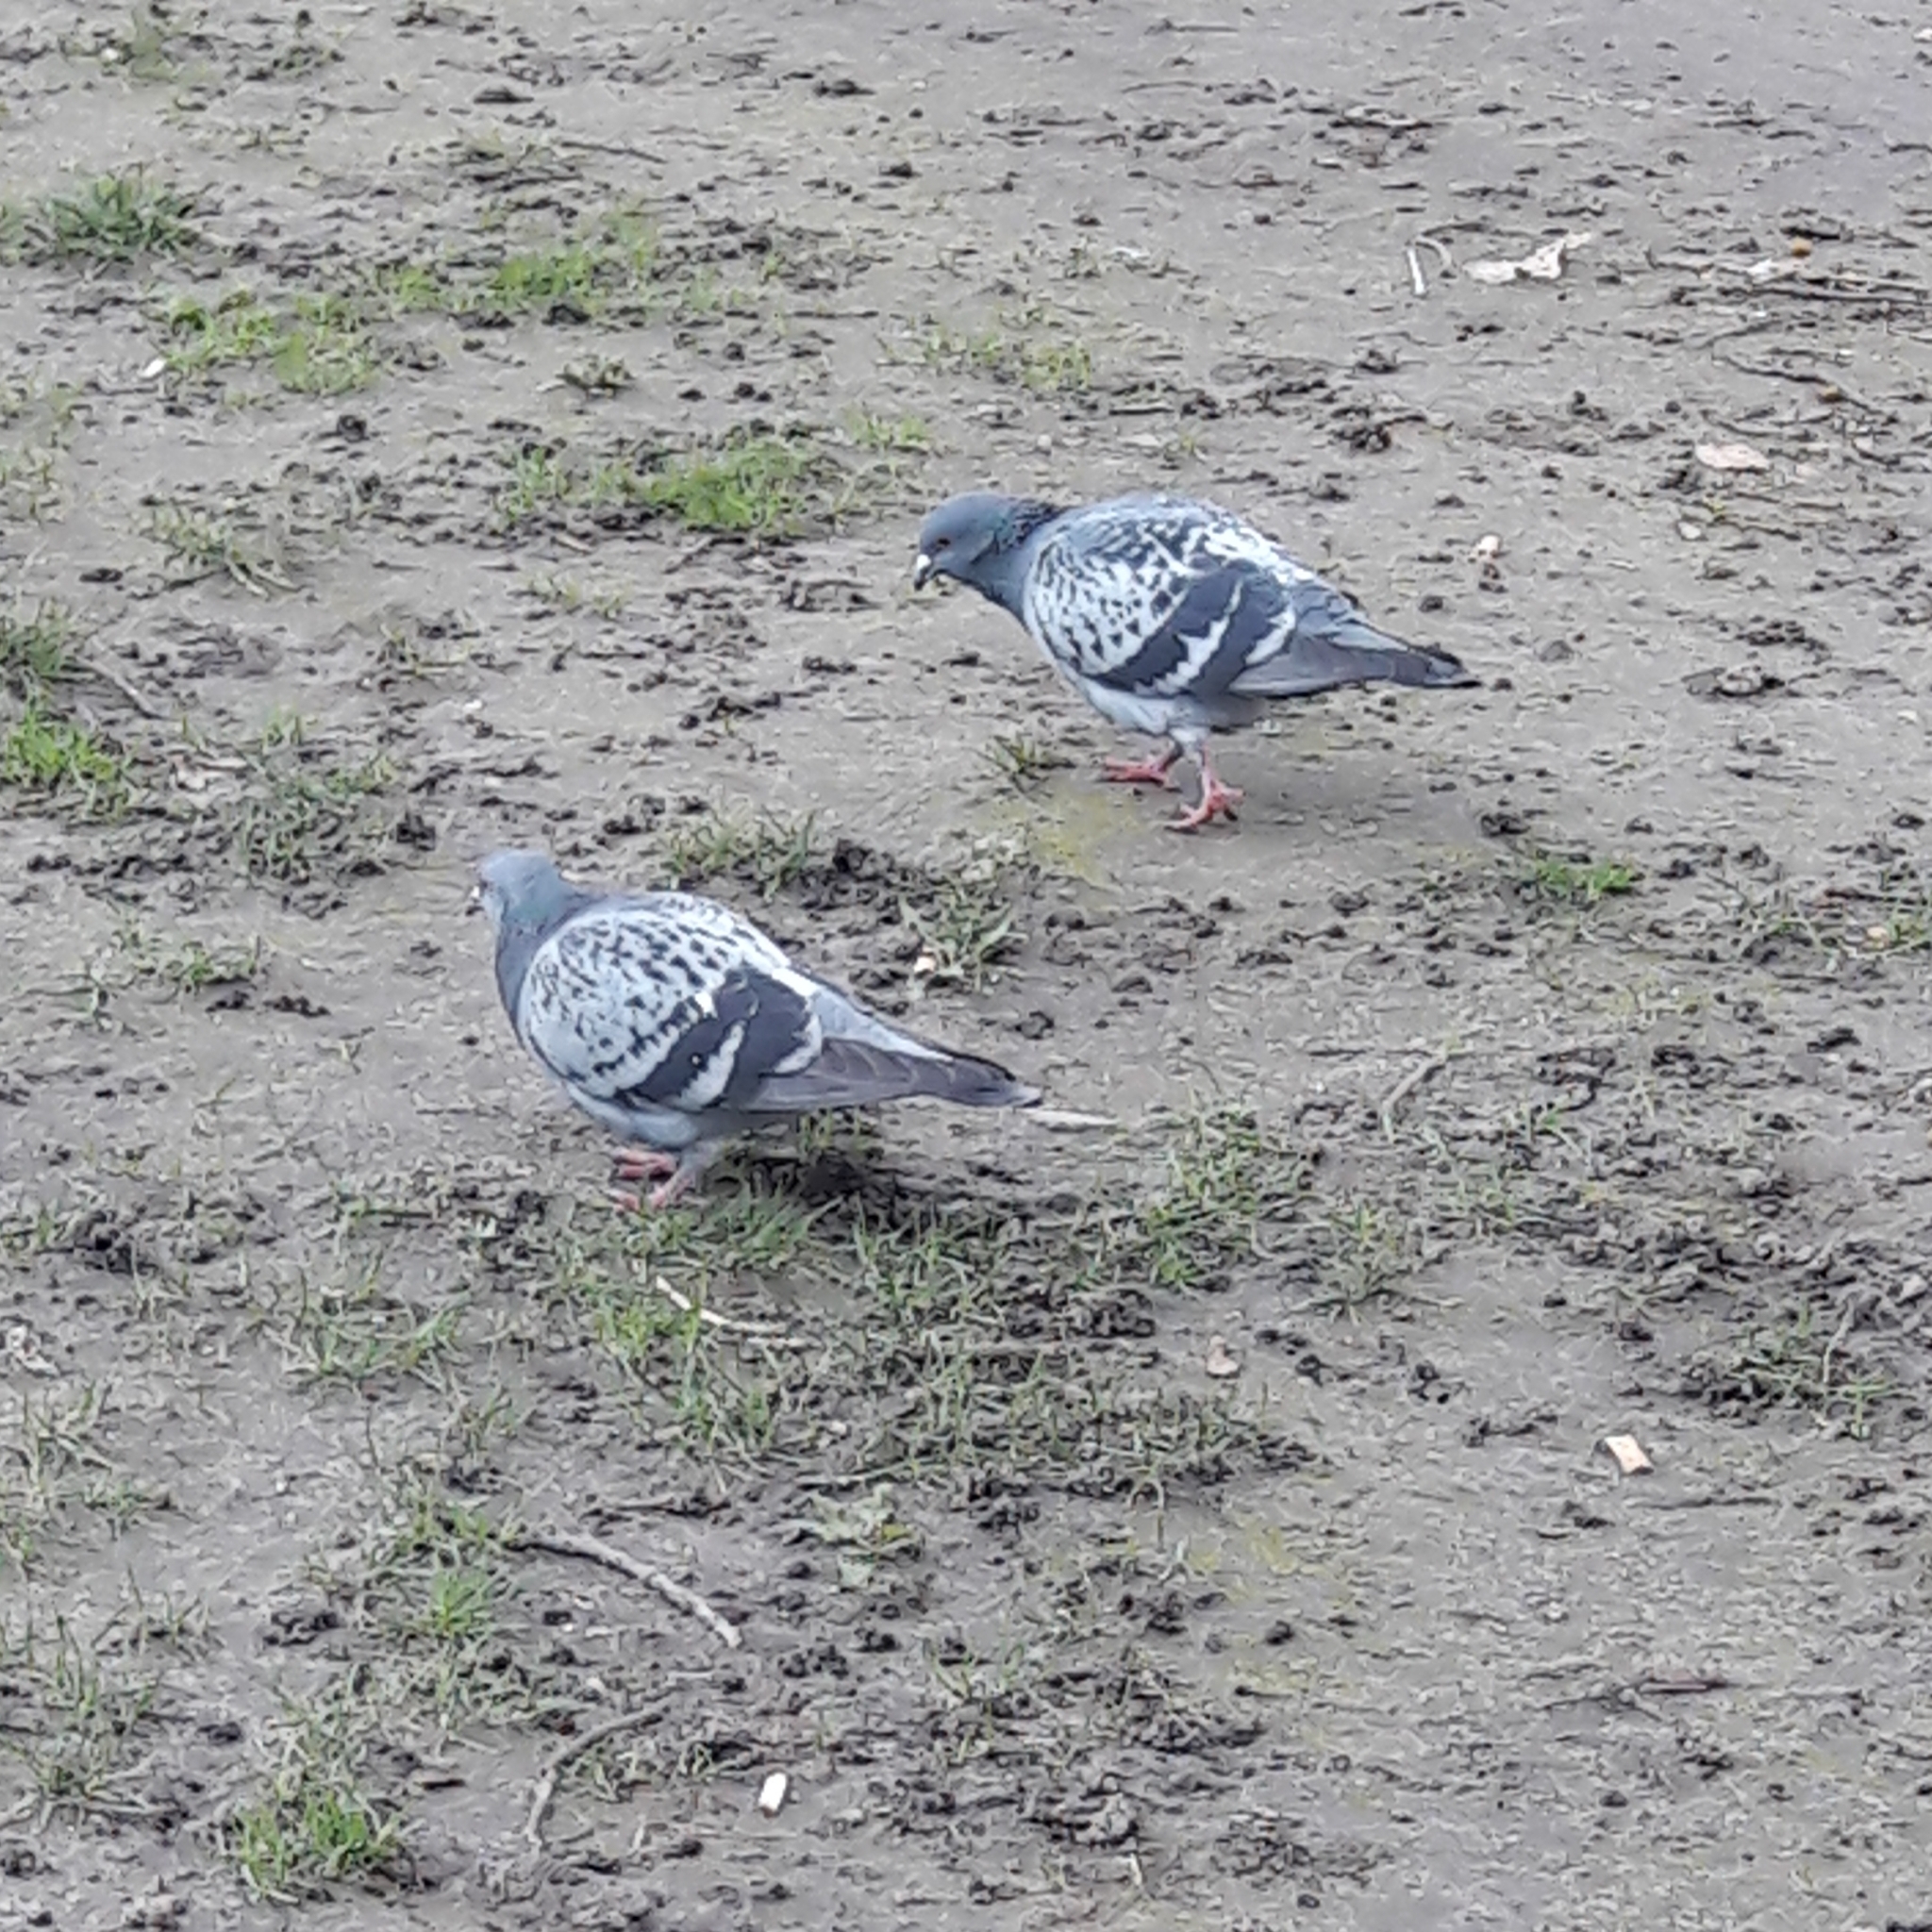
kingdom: Animalia
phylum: Chordata
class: Aves
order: Columbiformes
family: Columbidae
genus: Columba
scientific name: Columba livia
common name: Rock pigeon
